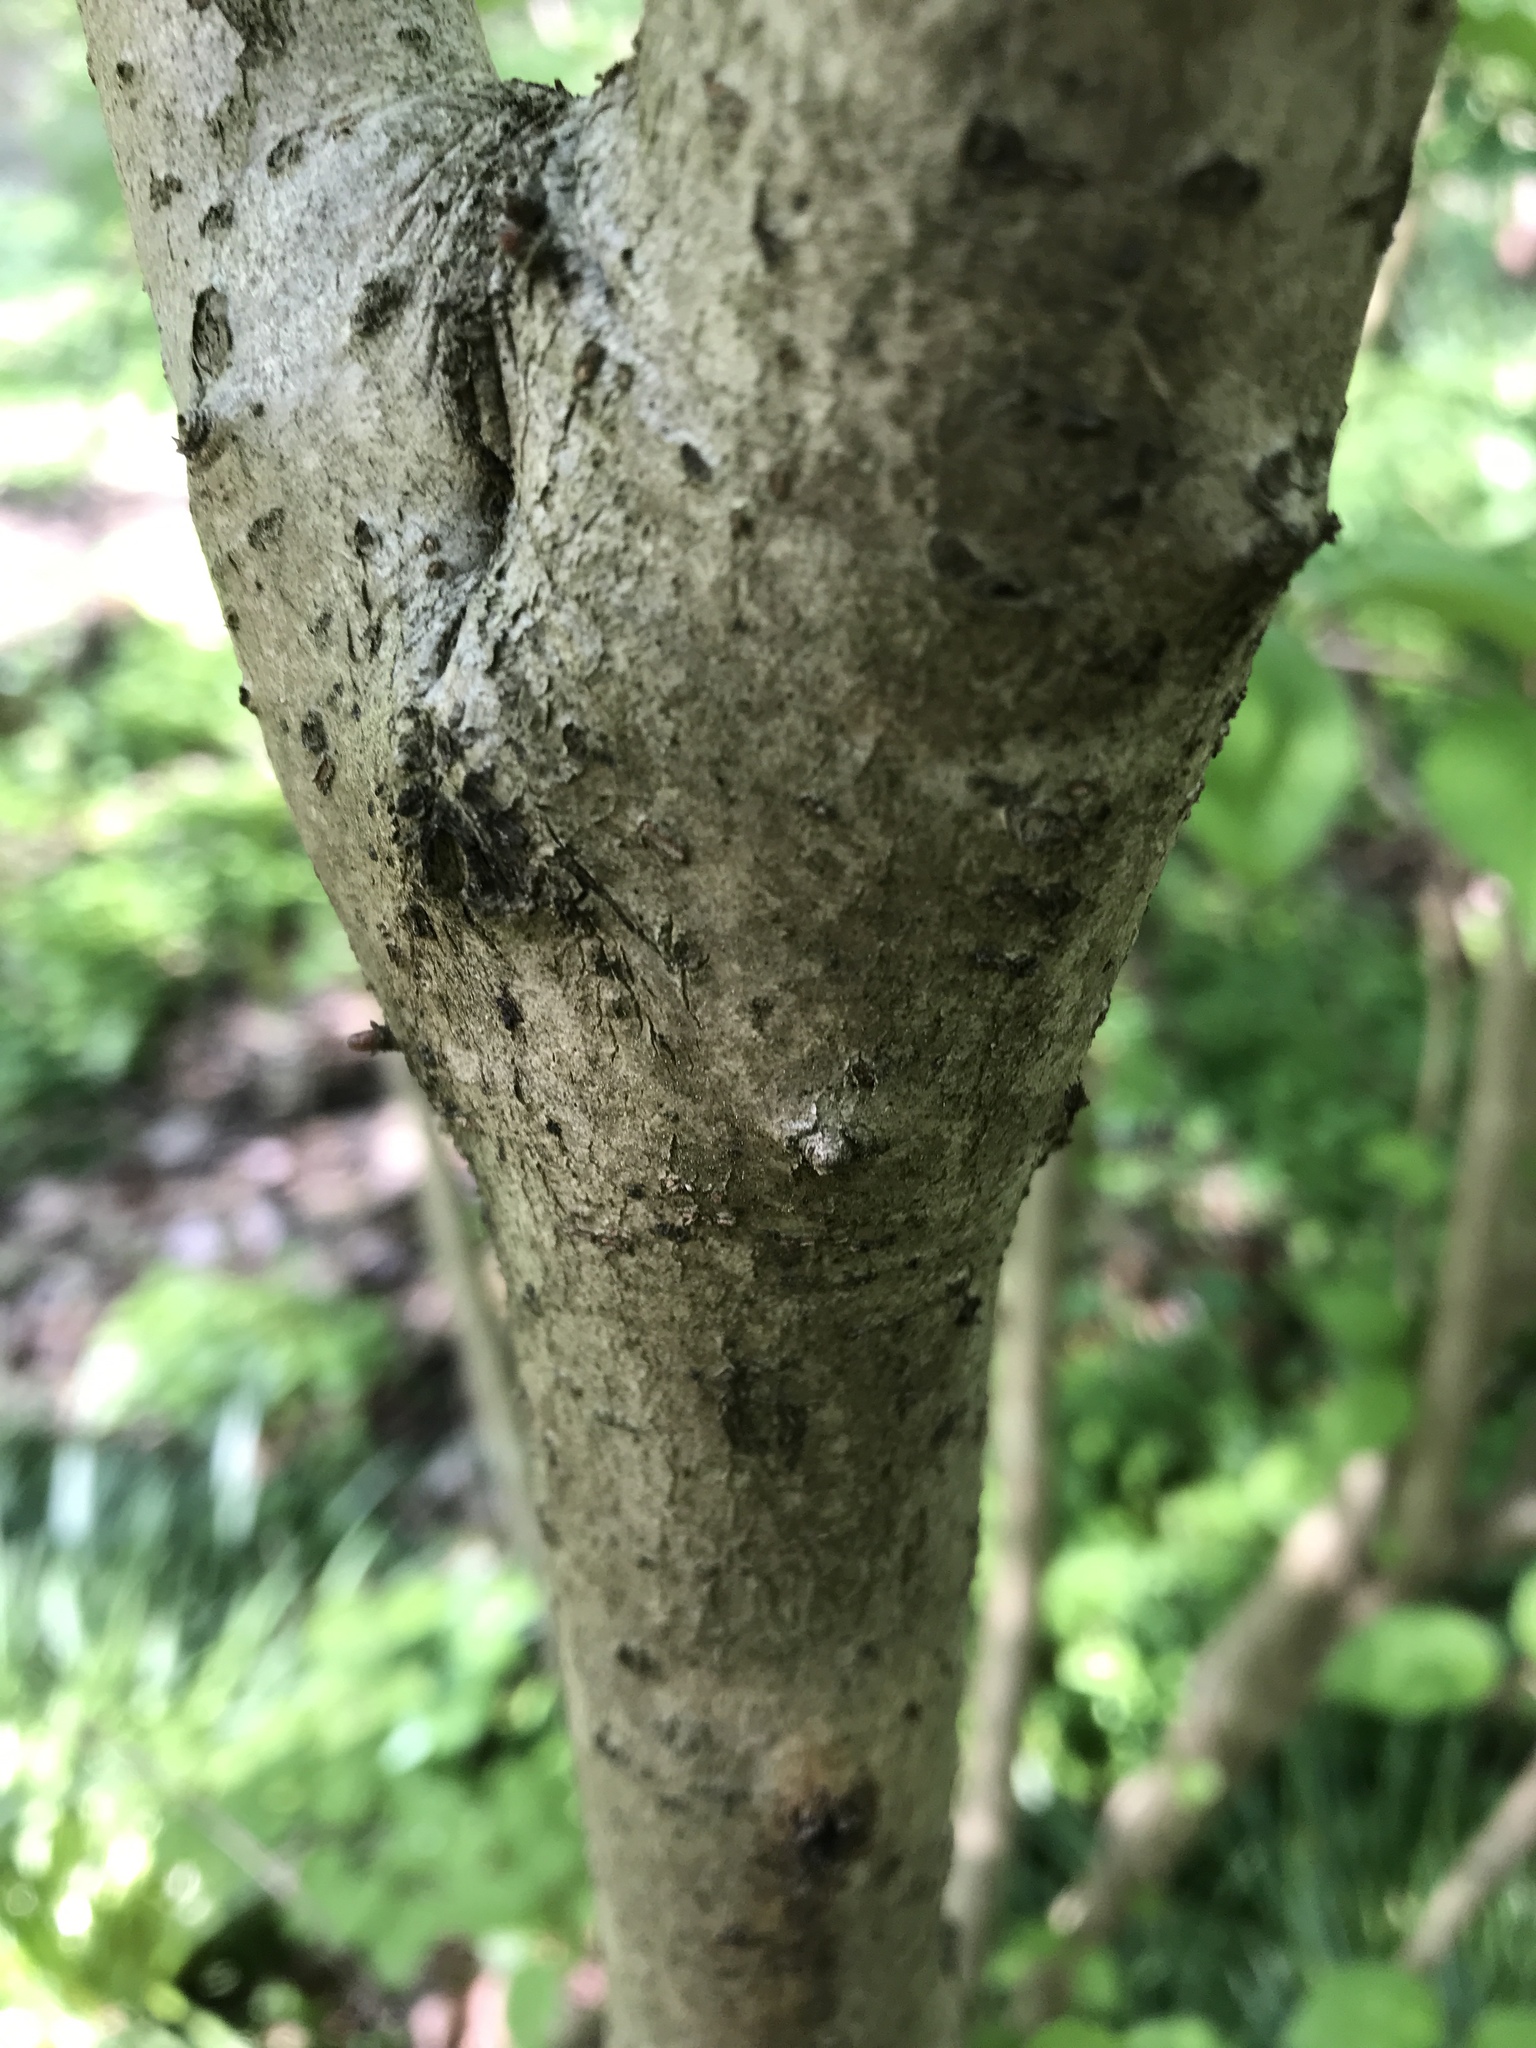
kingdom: Plantae
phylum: Tracheophyta
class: Magnoliopsida
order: Dipsacales
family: Viburnaceae
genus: Viburnum
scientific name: Viburnum plicatum
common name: Japanese snowball
